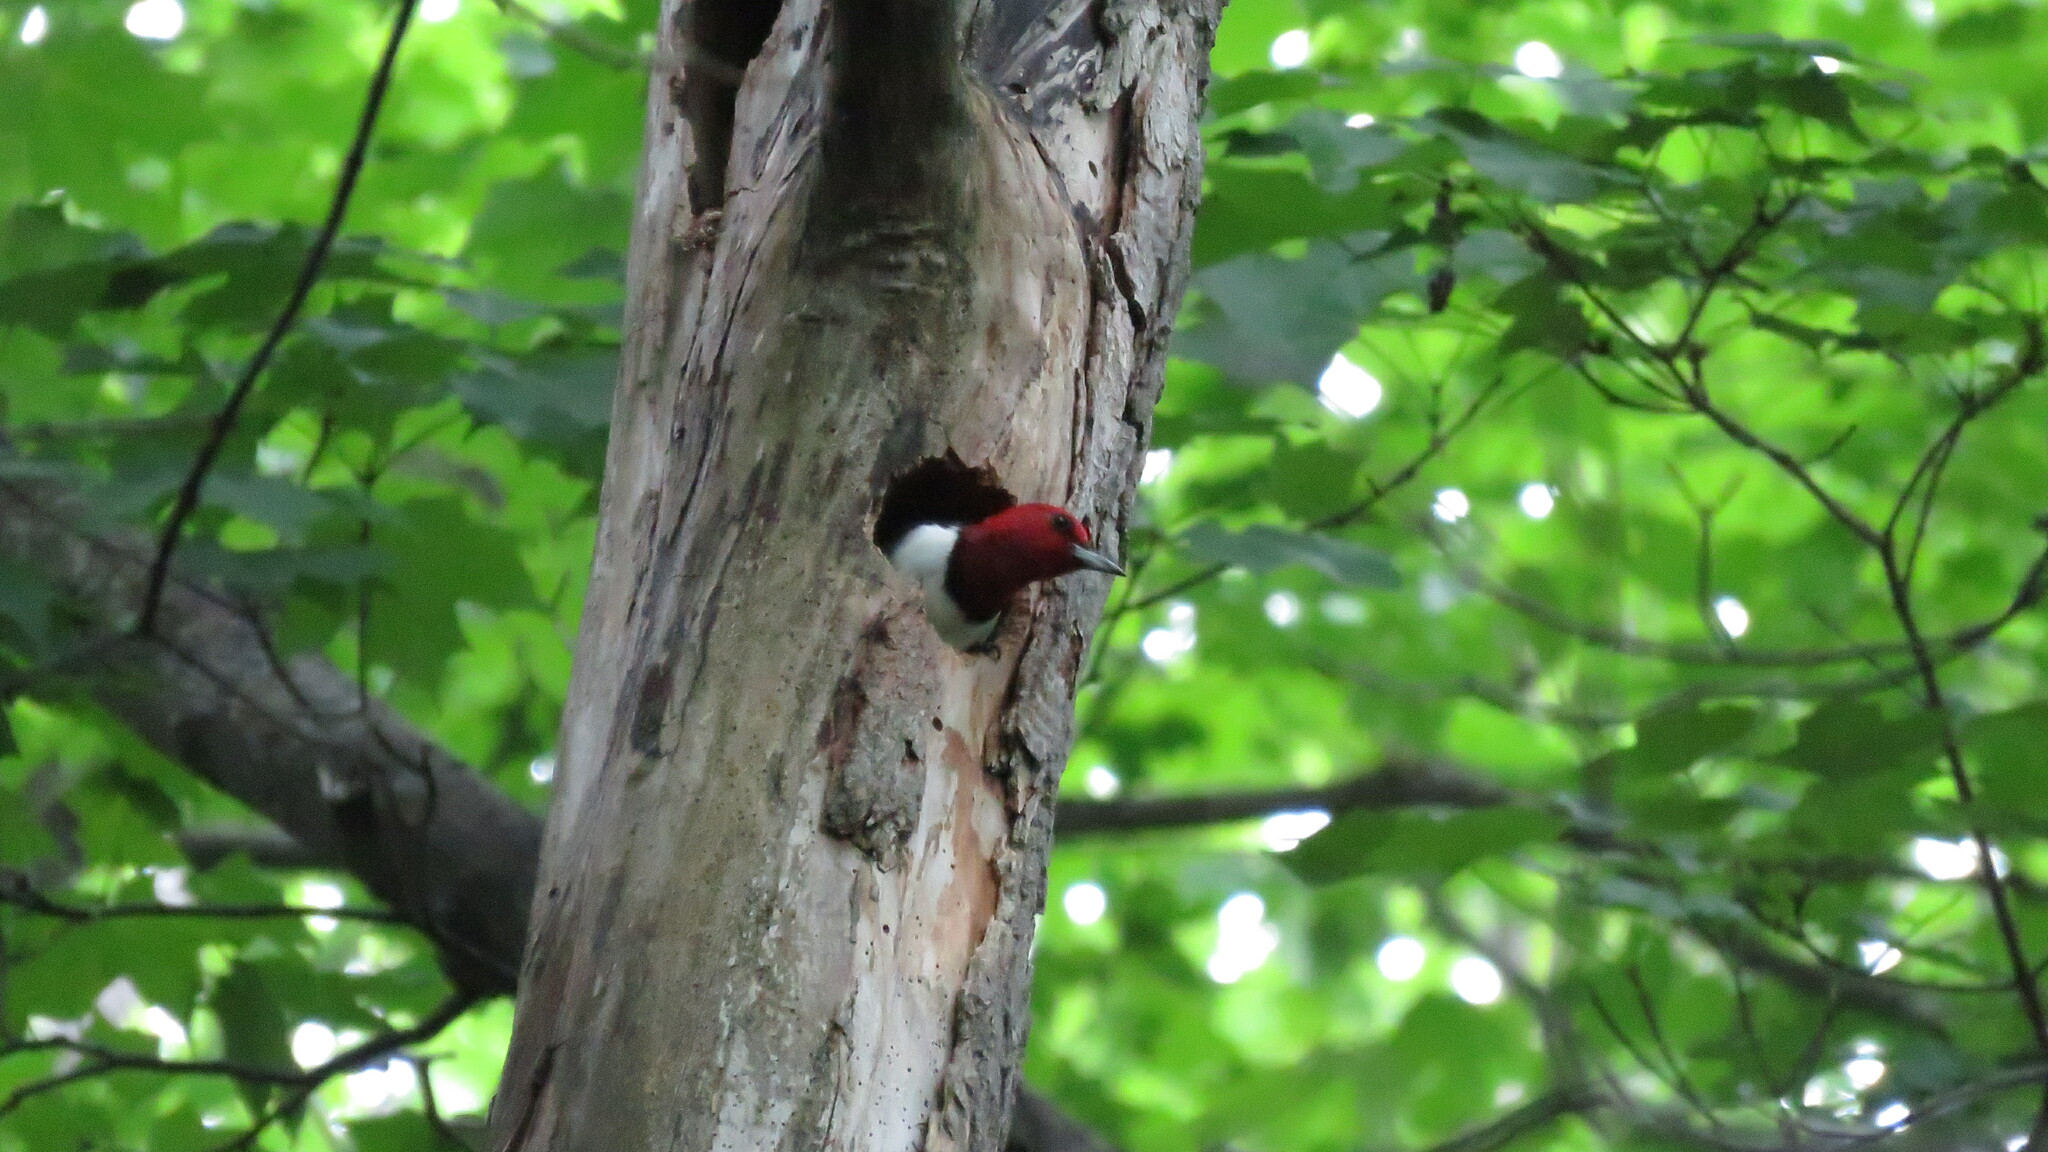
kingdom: Animalia
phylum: Chordata
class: Aves
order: Piciformes
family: Picidae
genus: Melanerpes
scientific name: Melanerpes erythrocephalus
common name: Red-headed woodpecker
